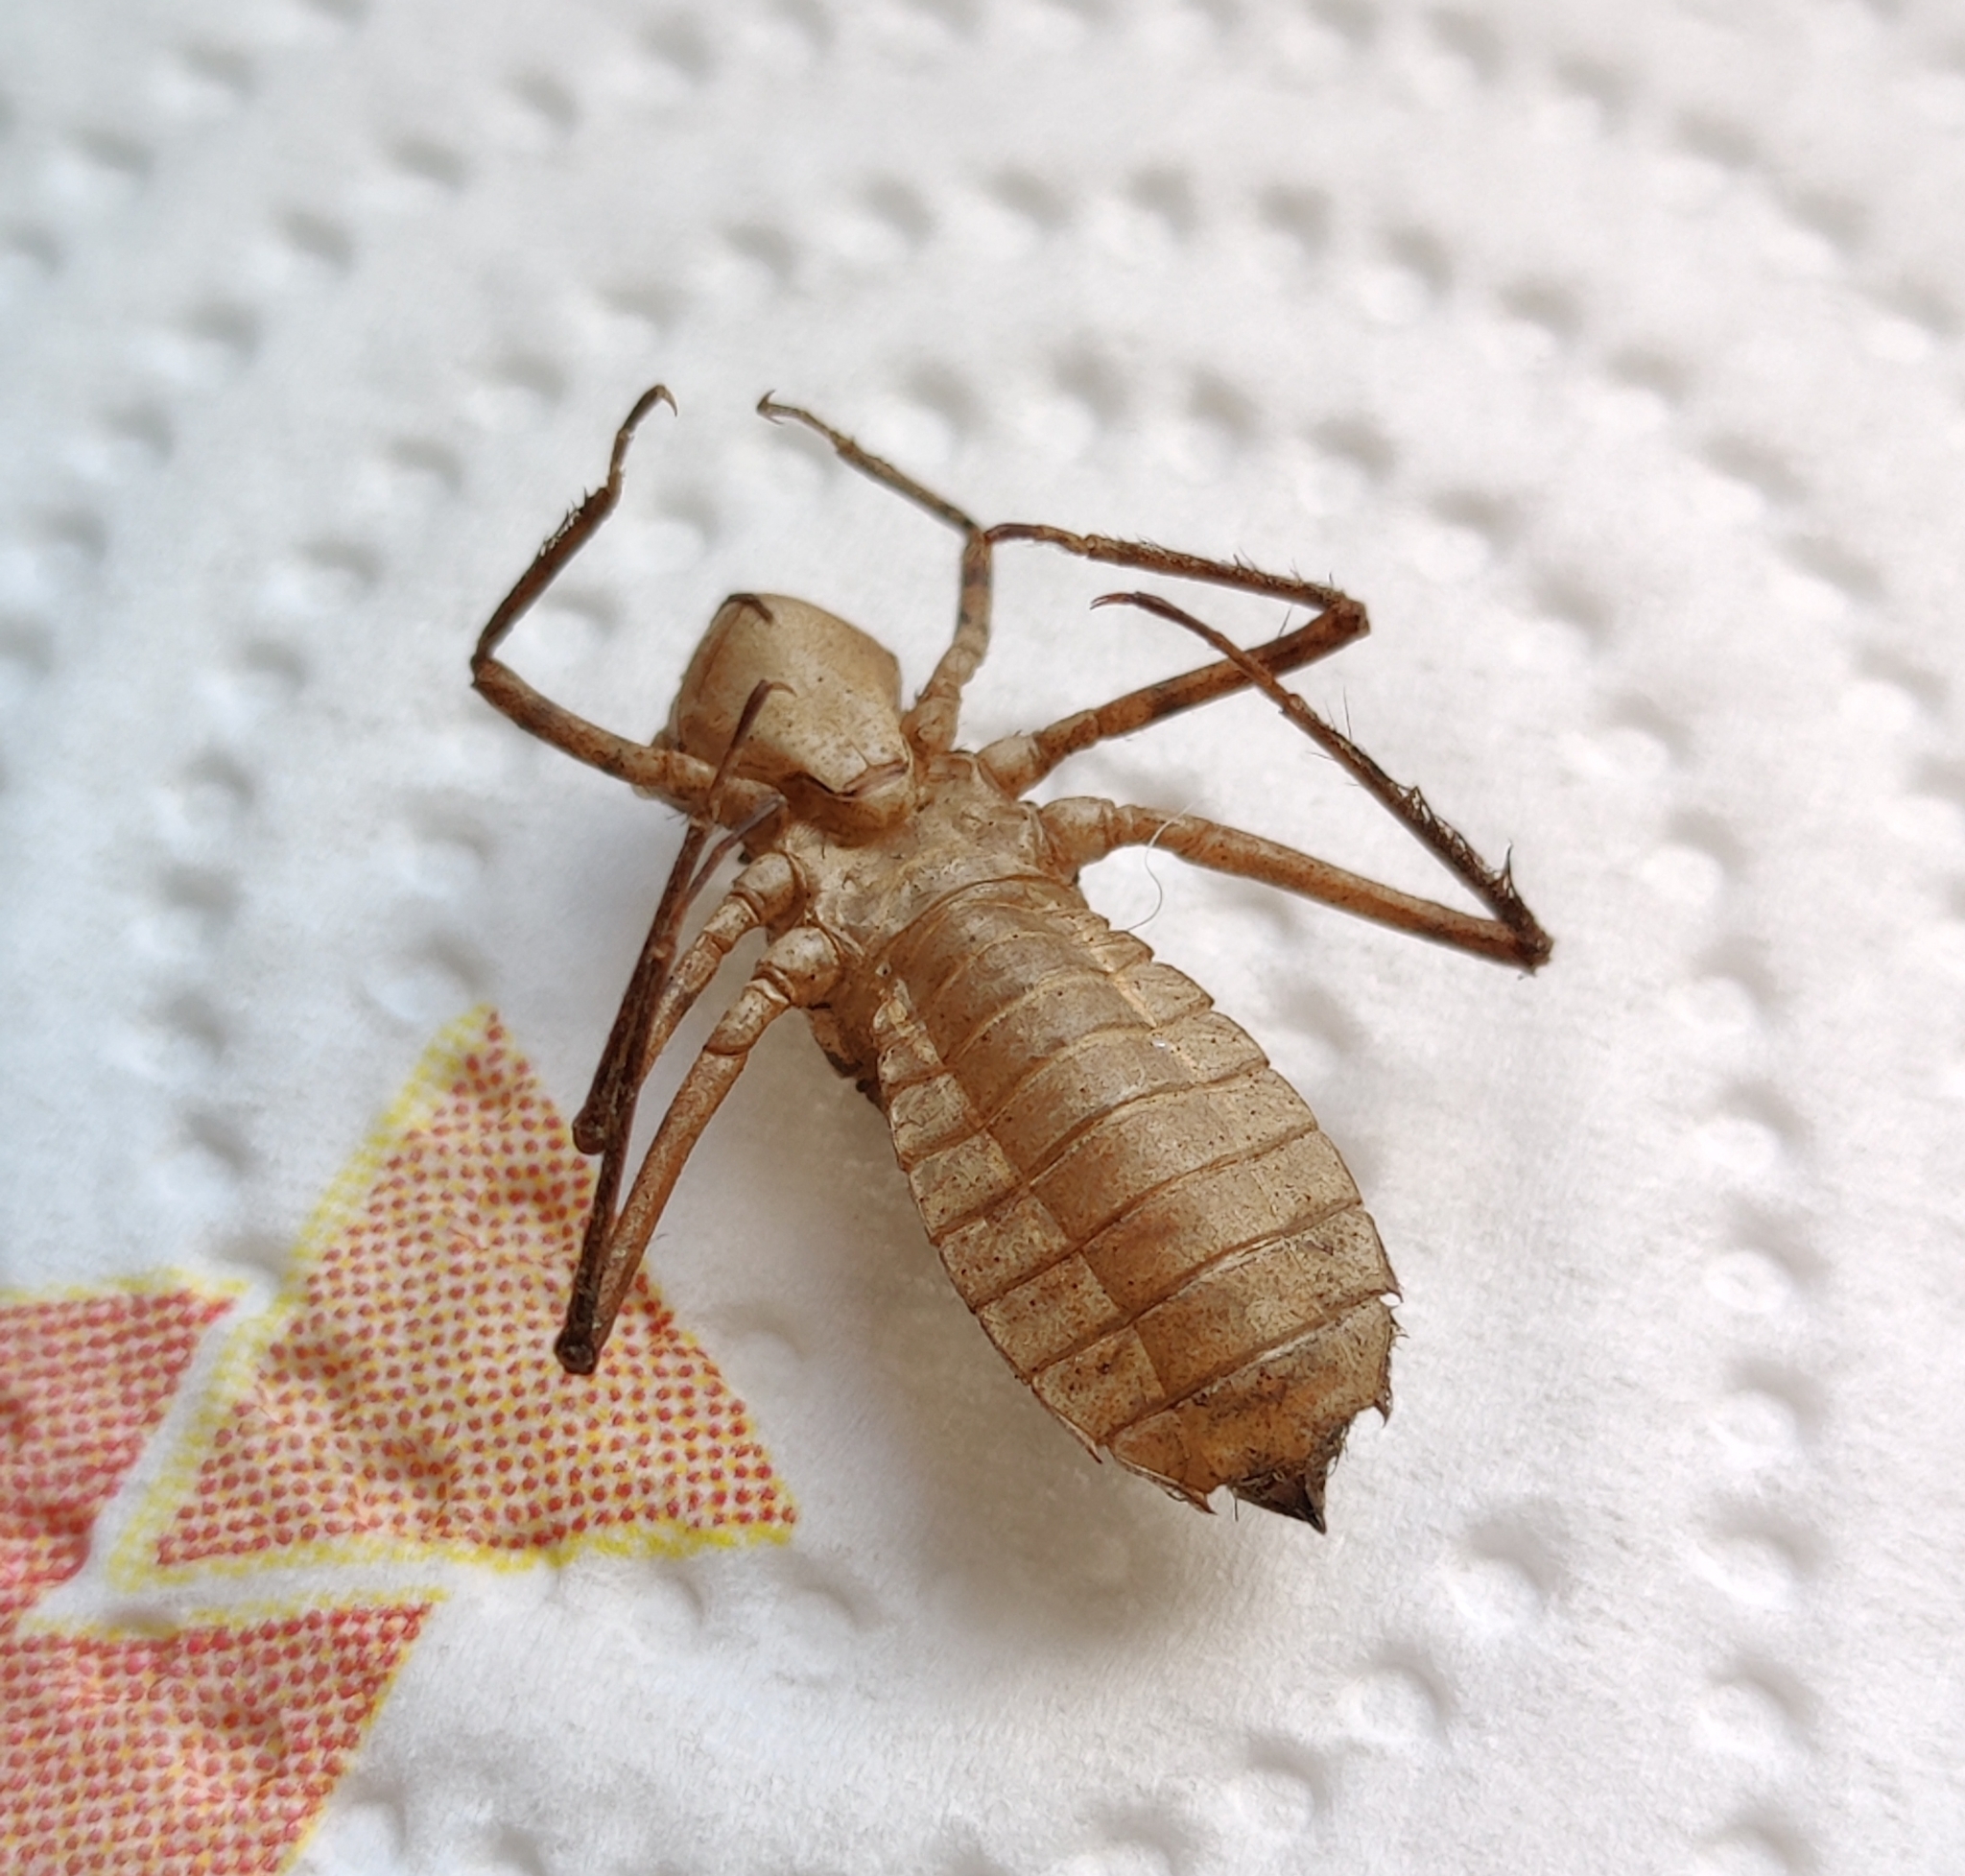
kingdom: Animalia
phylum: Arthropoda
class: Insecta
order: Odonata
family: Corduliidae
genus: Cordulia
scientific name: Cordulia aenea
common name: Downy emerald
